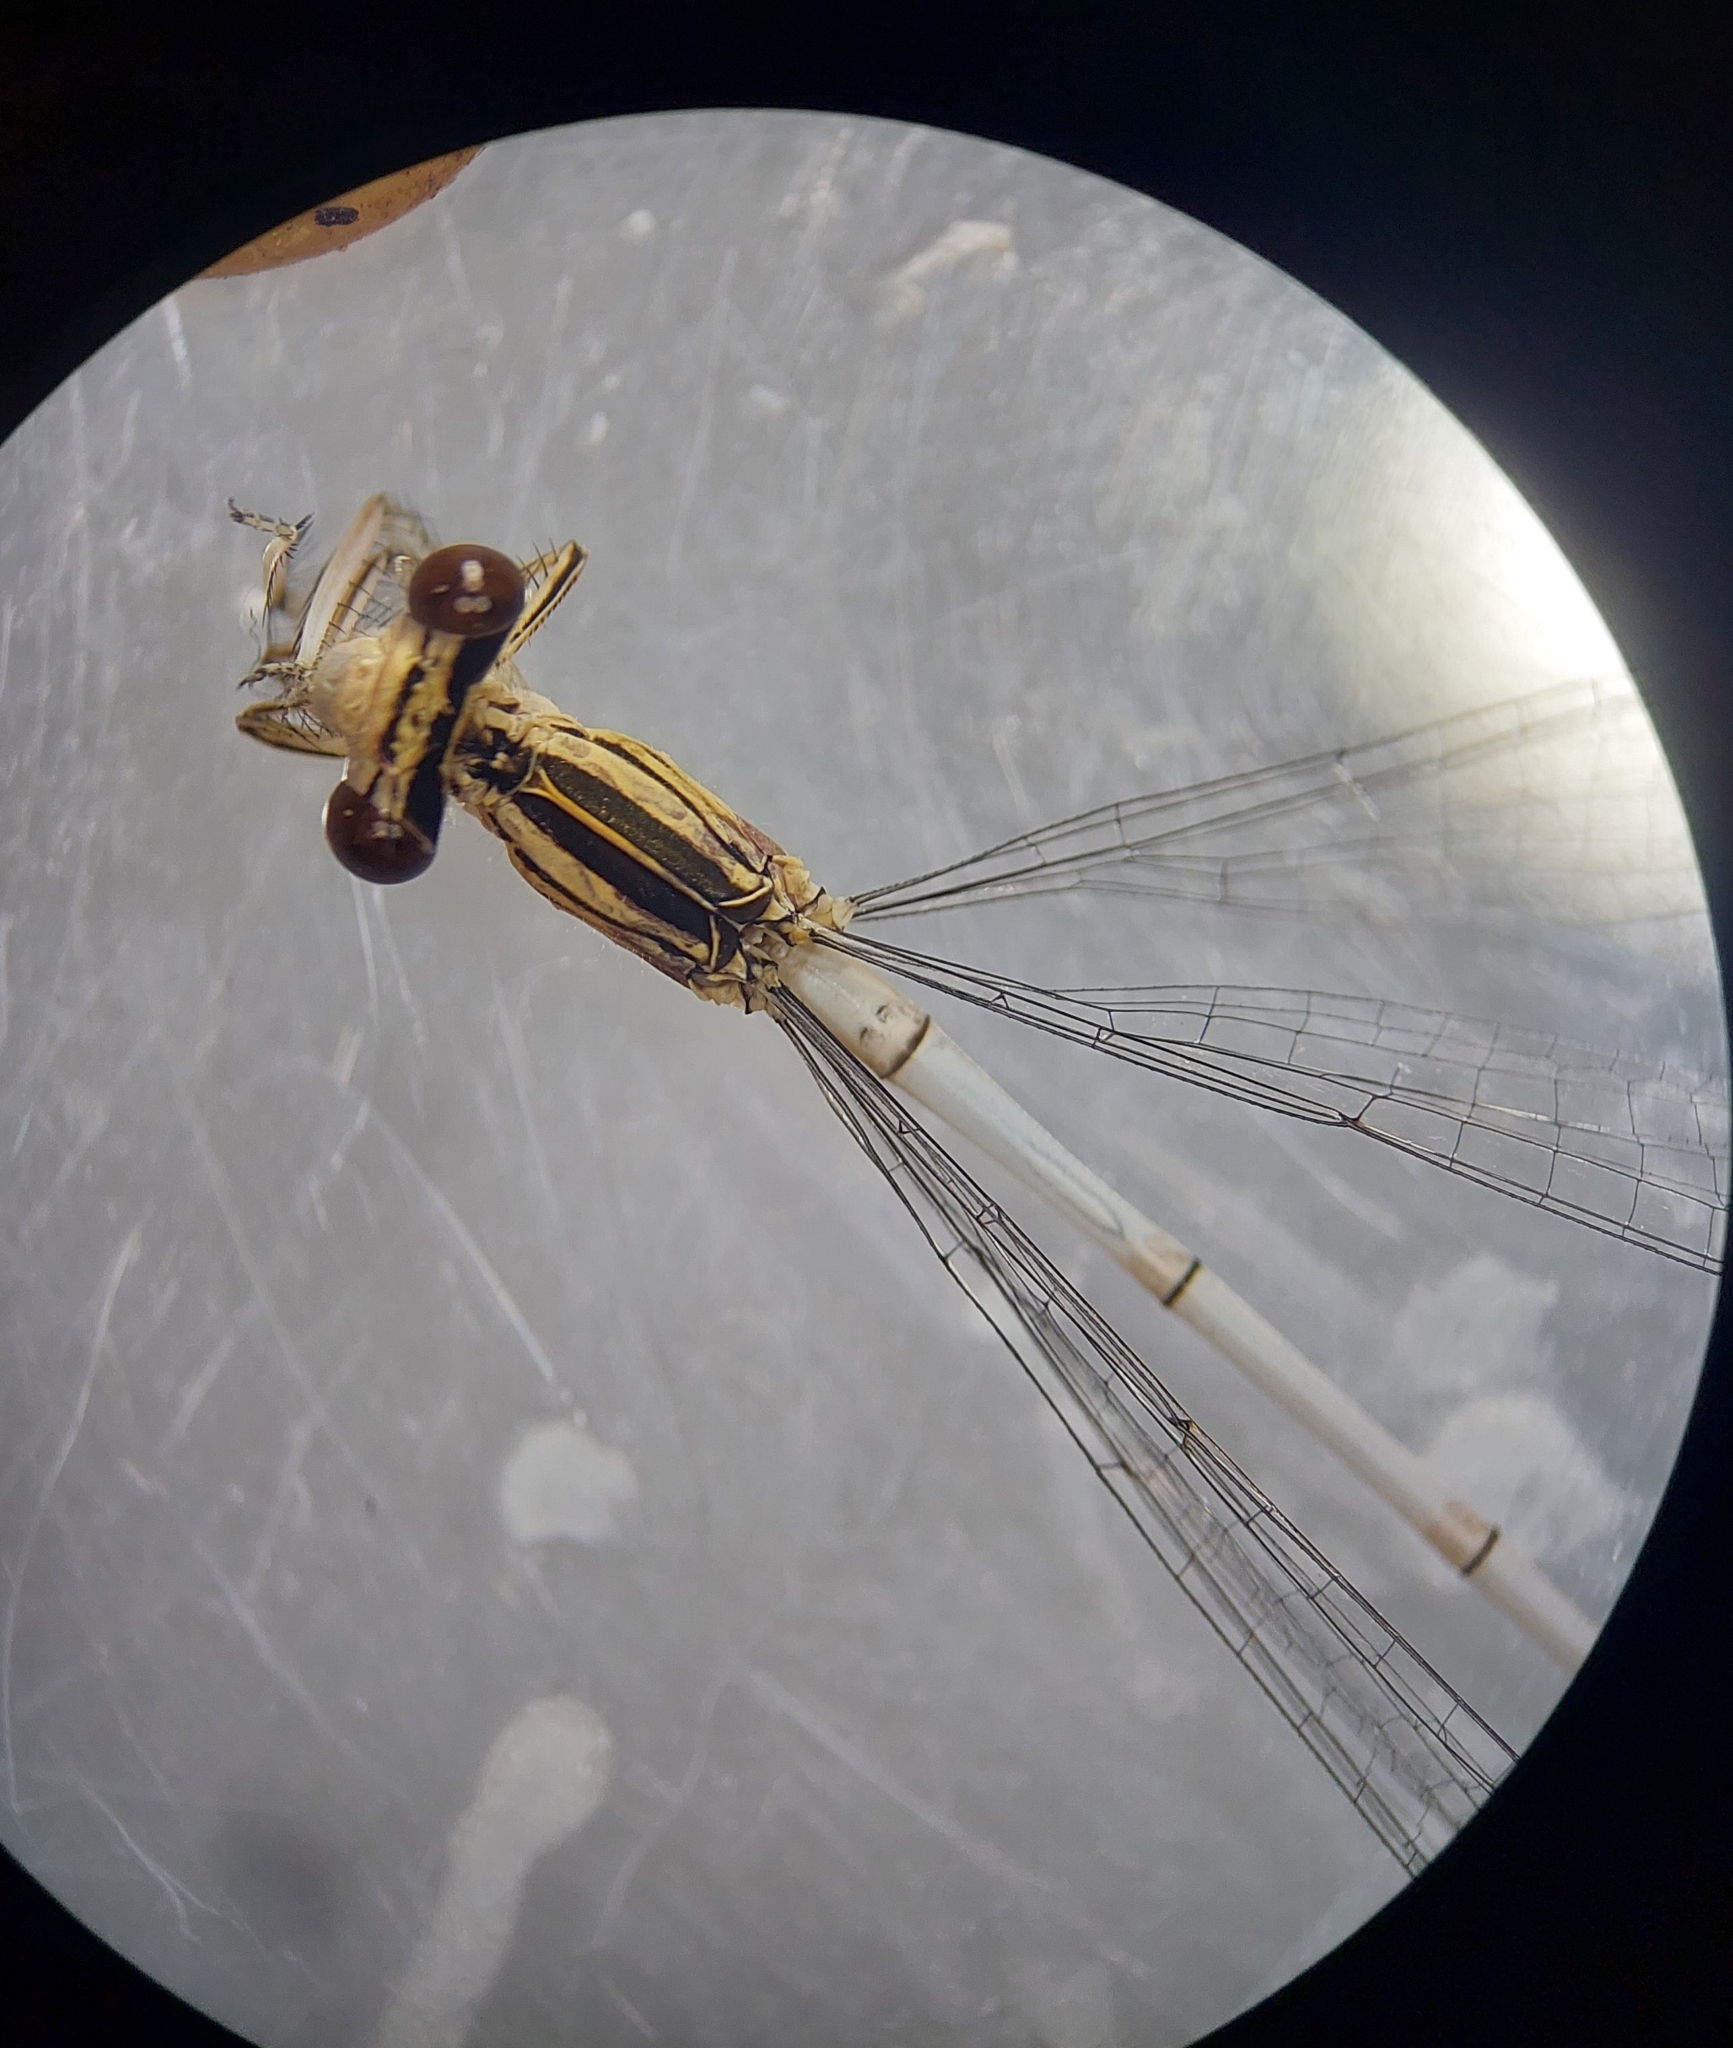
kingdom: Animalia
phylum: Arthropoda
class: Insecta
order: Odonata
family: Platycnemididae
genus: Platycnemis
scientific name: Platycnemis pennipes
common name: White-legged damselfly
